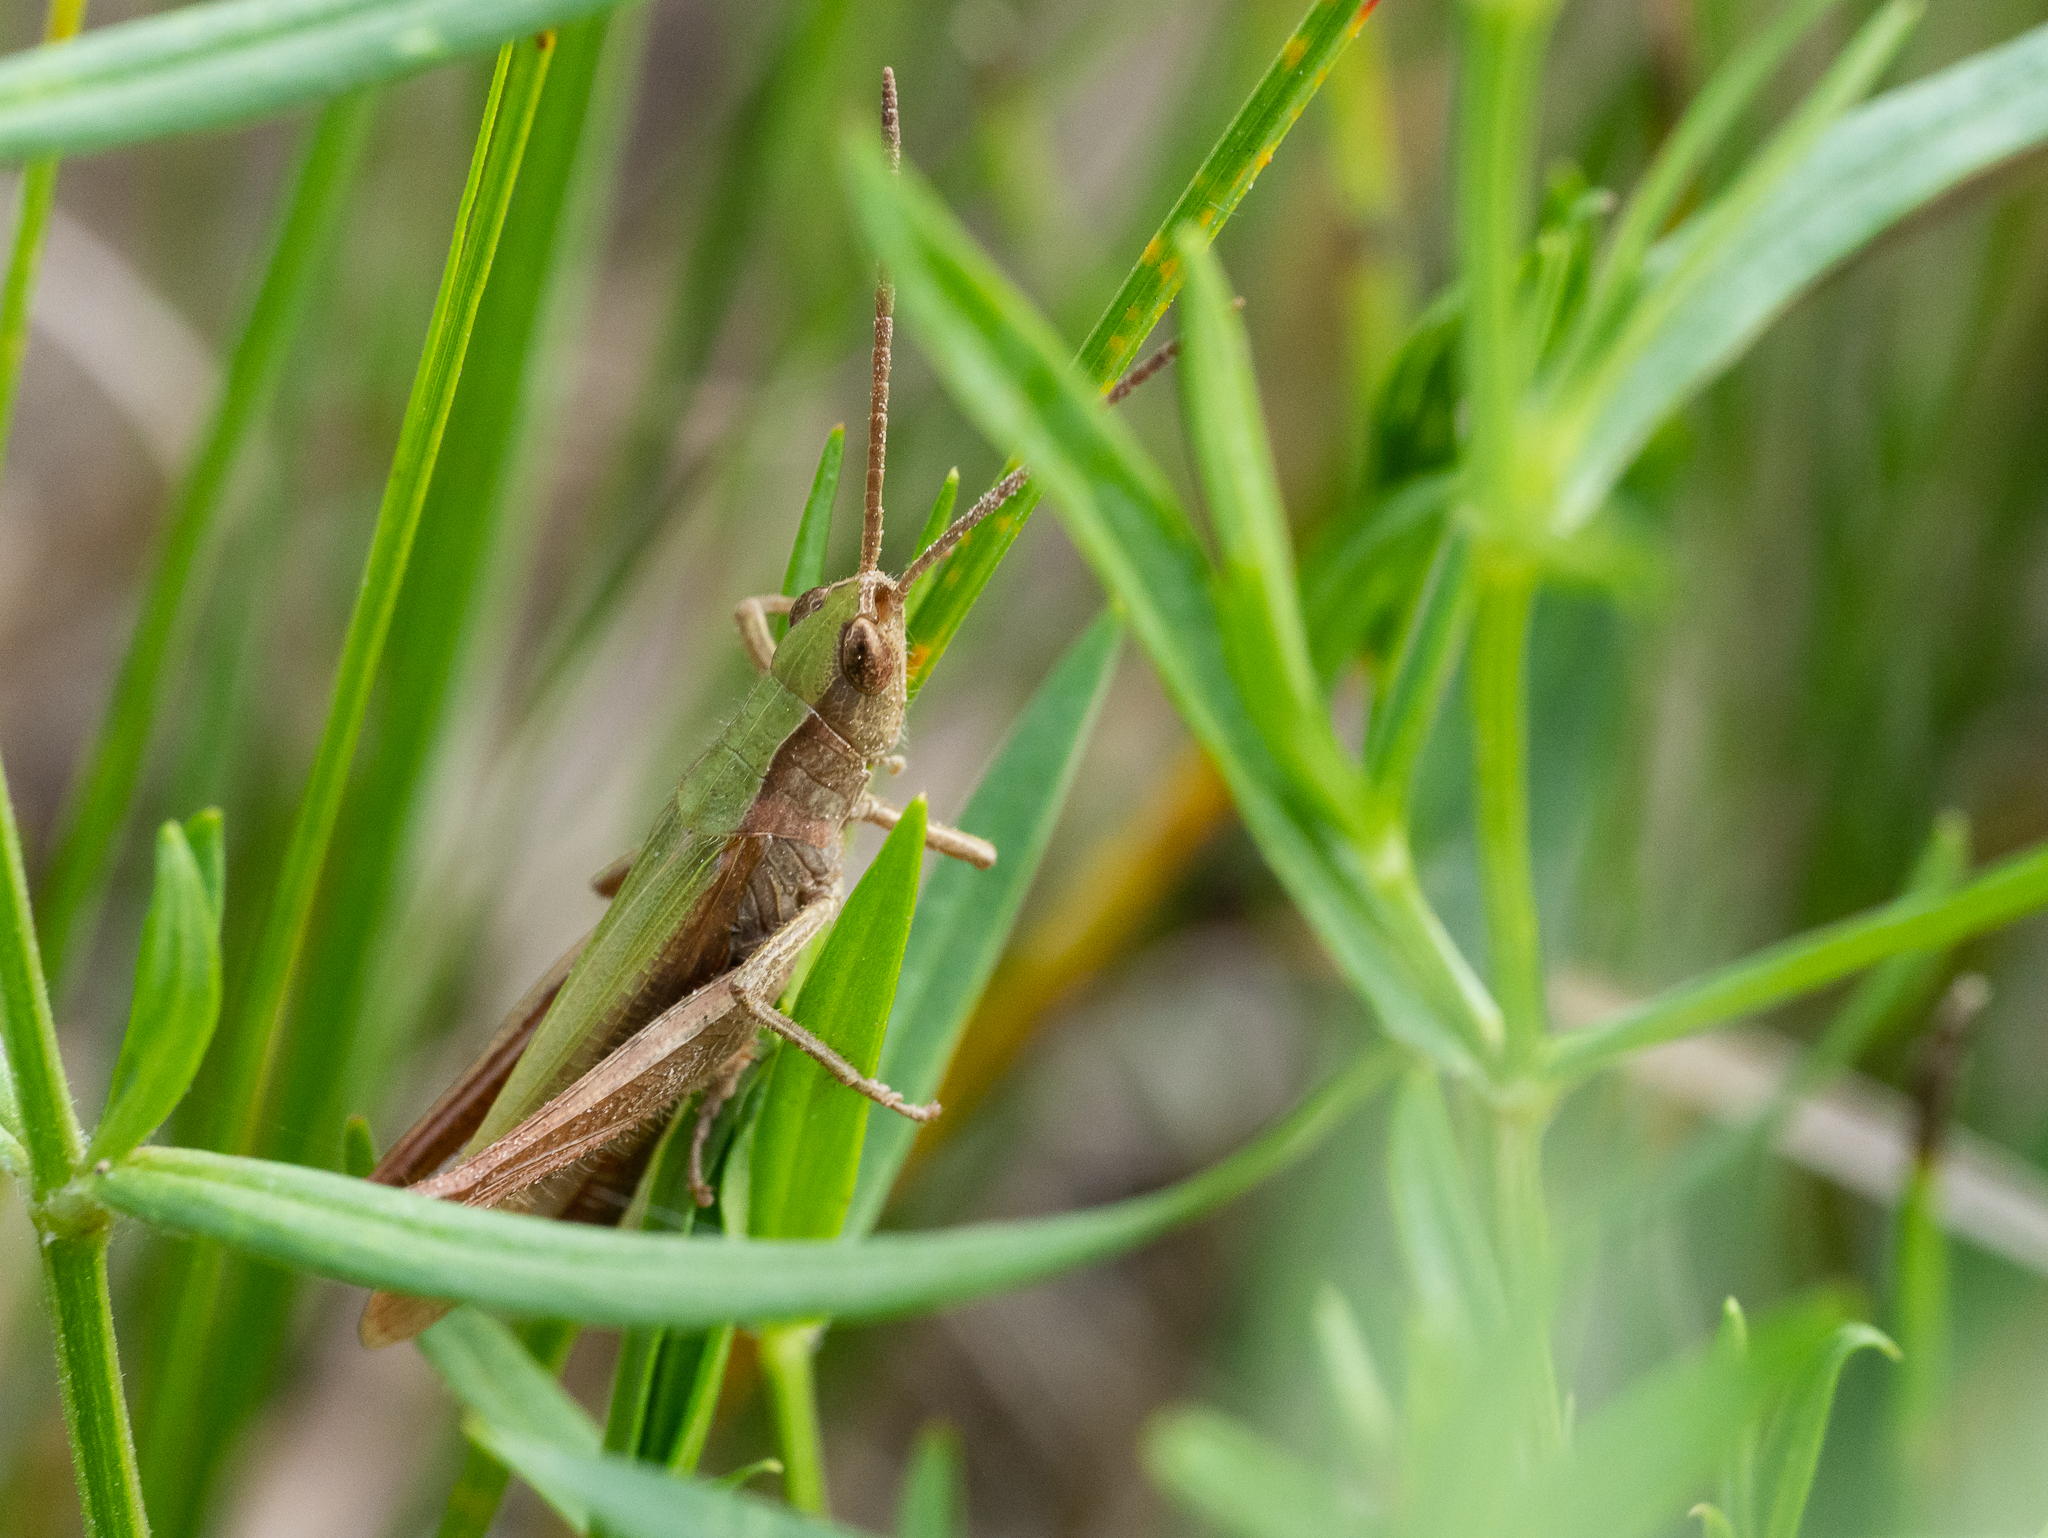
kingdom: Animalia
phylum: Arthropoda
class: Insecta
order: Orthoptera
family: Acrididae
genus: Chorthippus
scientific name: Chorthippus dorsatus
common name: Steppe grasshopper
